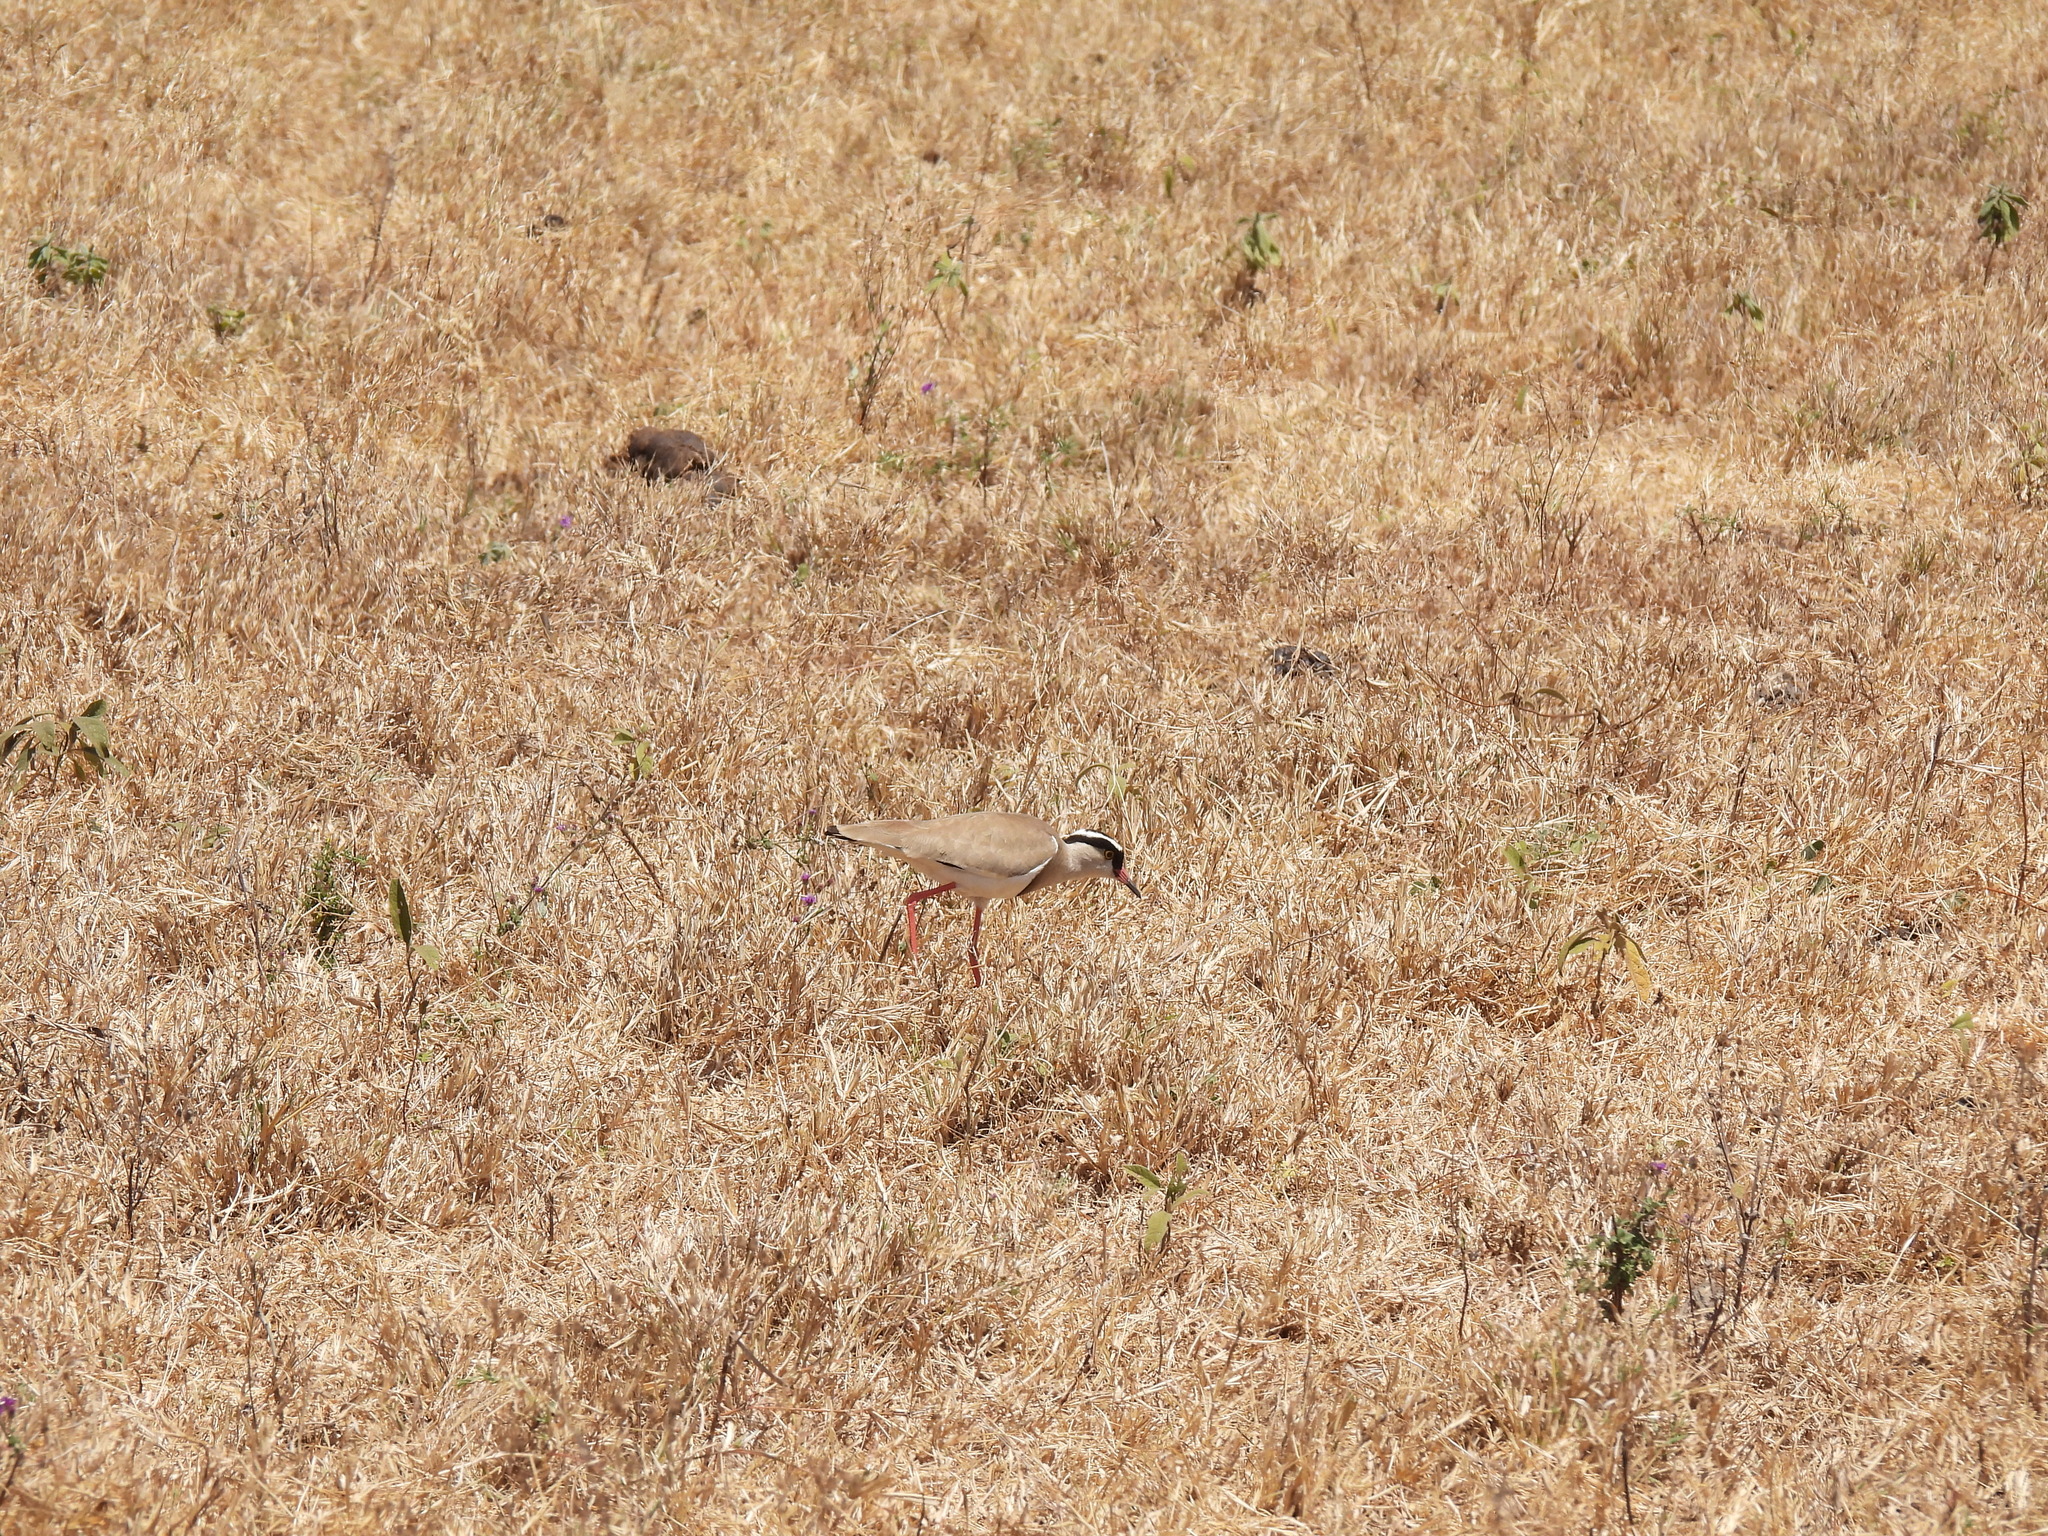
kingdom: Animalia
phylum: Chordata
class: Aves
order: Charadriiformes
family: Charadriidae
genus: Vanellus
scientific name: Vanellus coronatus
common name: Crowned lapwing
